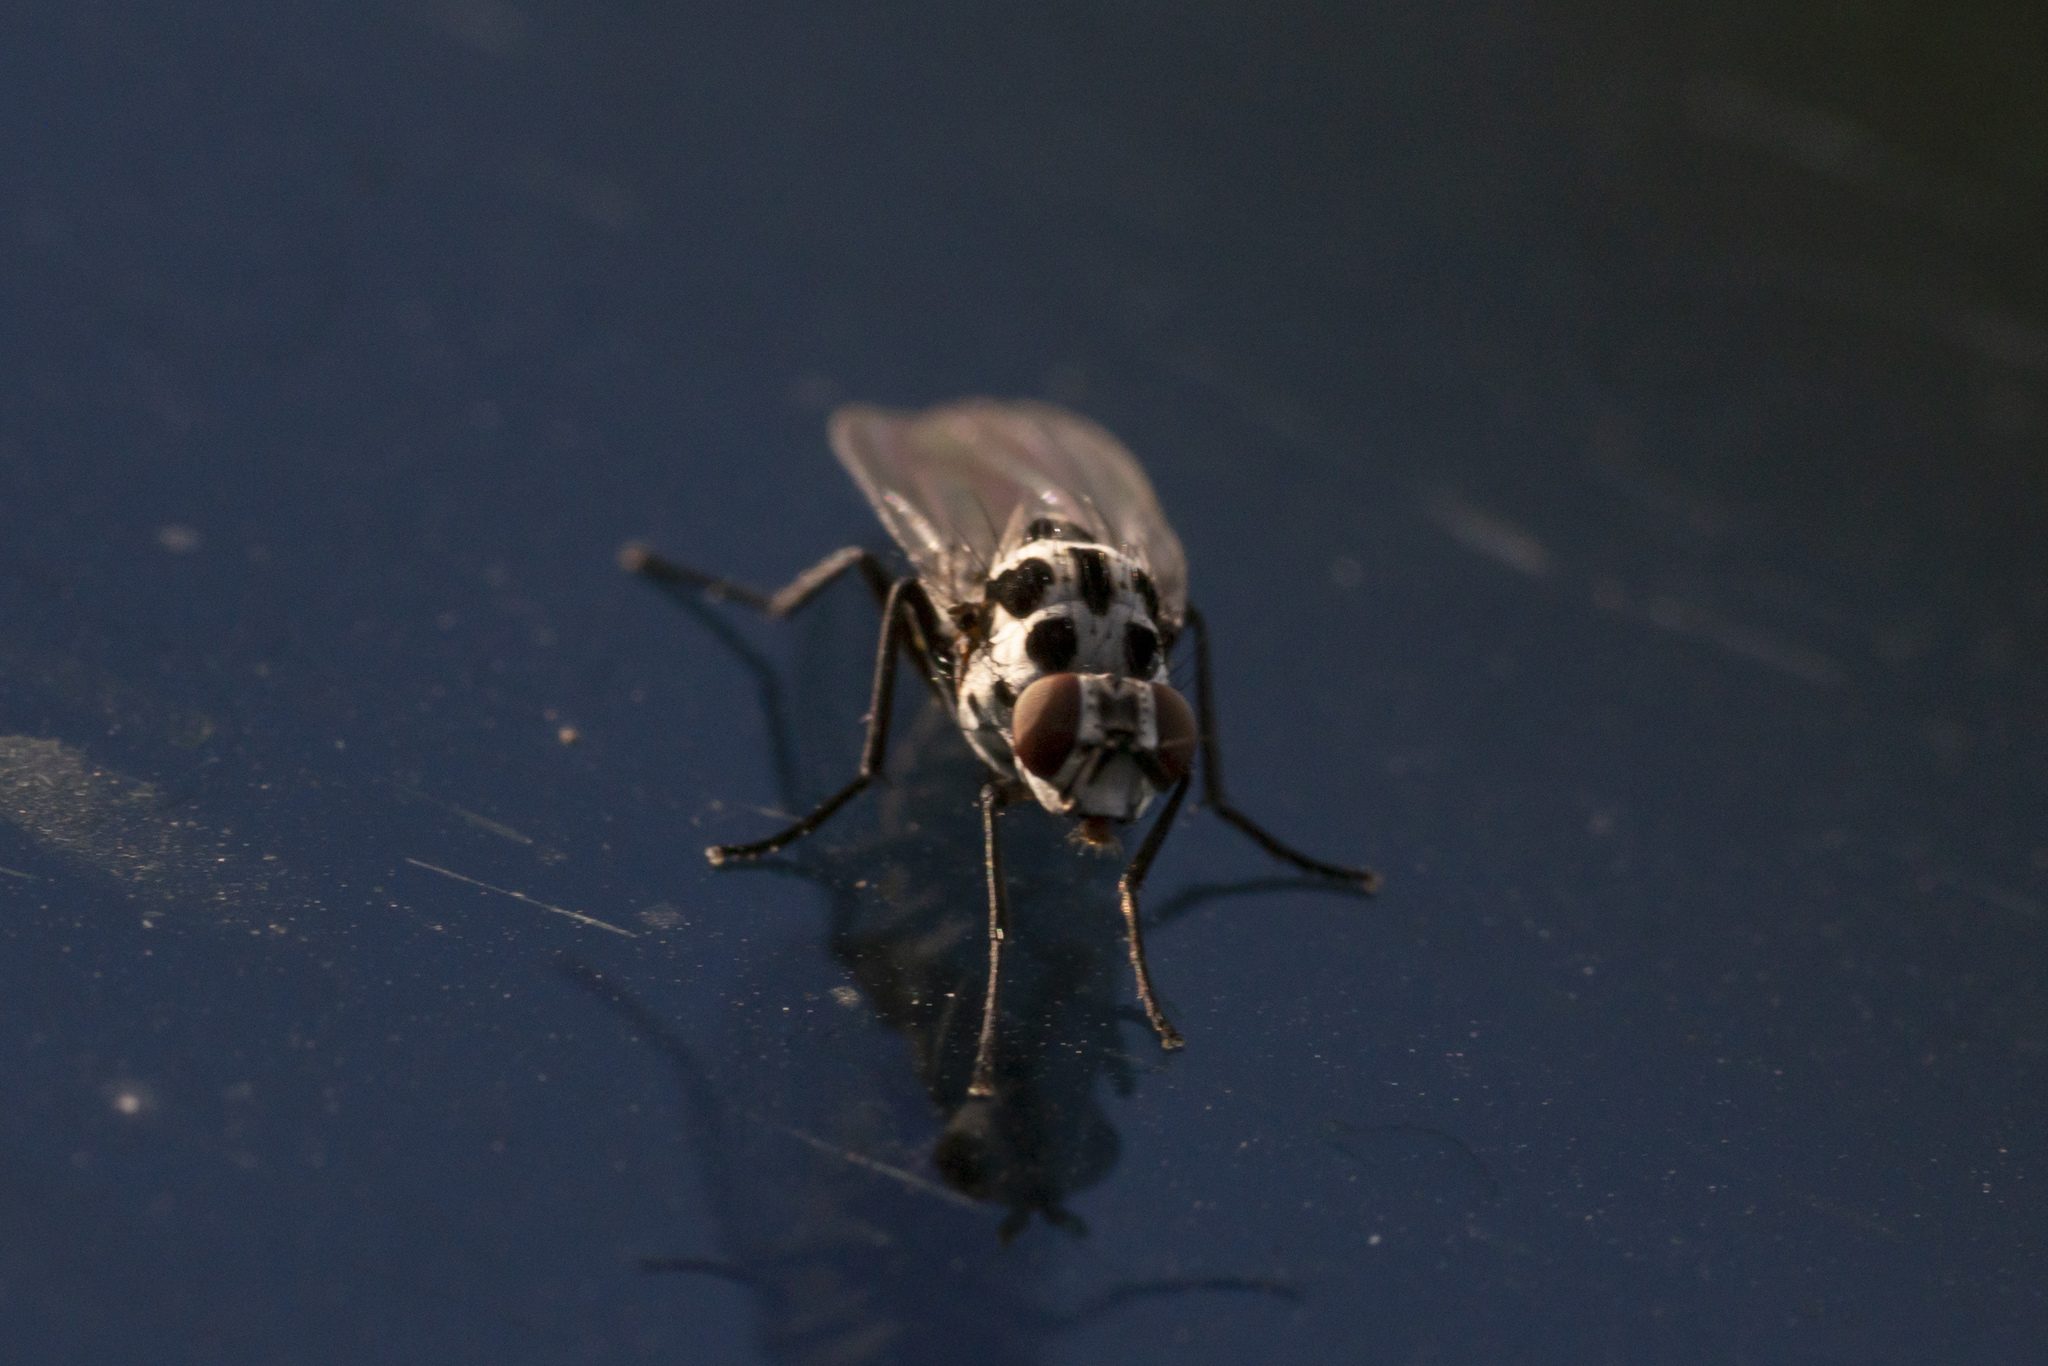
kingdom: Animalia
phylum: Arthropoda
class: Insecta
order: Diptera
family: Anthomyiidae
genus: Anthomyia
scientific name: Anthomyia procellaris
